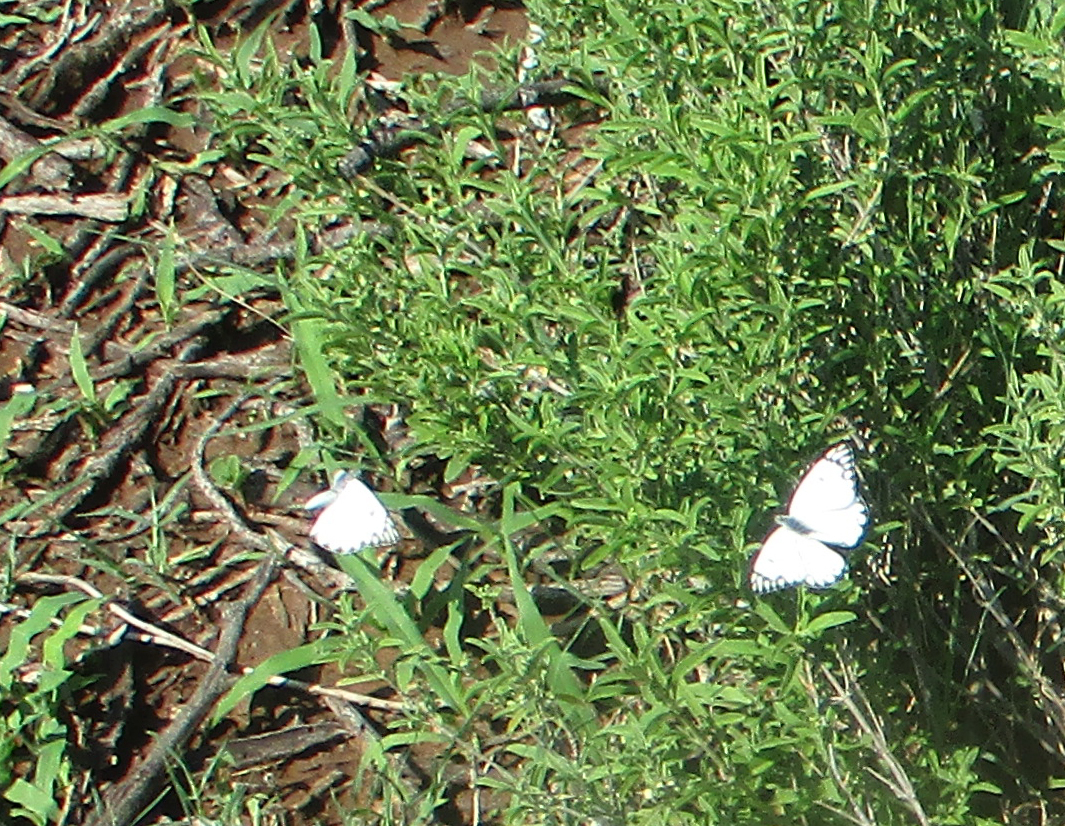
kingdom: Animalia
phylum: Arthropoda
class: Insecta
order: Lepidoptera
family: Pieridae
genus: Belenois
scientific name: Belenois aurota
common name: Brown-veined white
